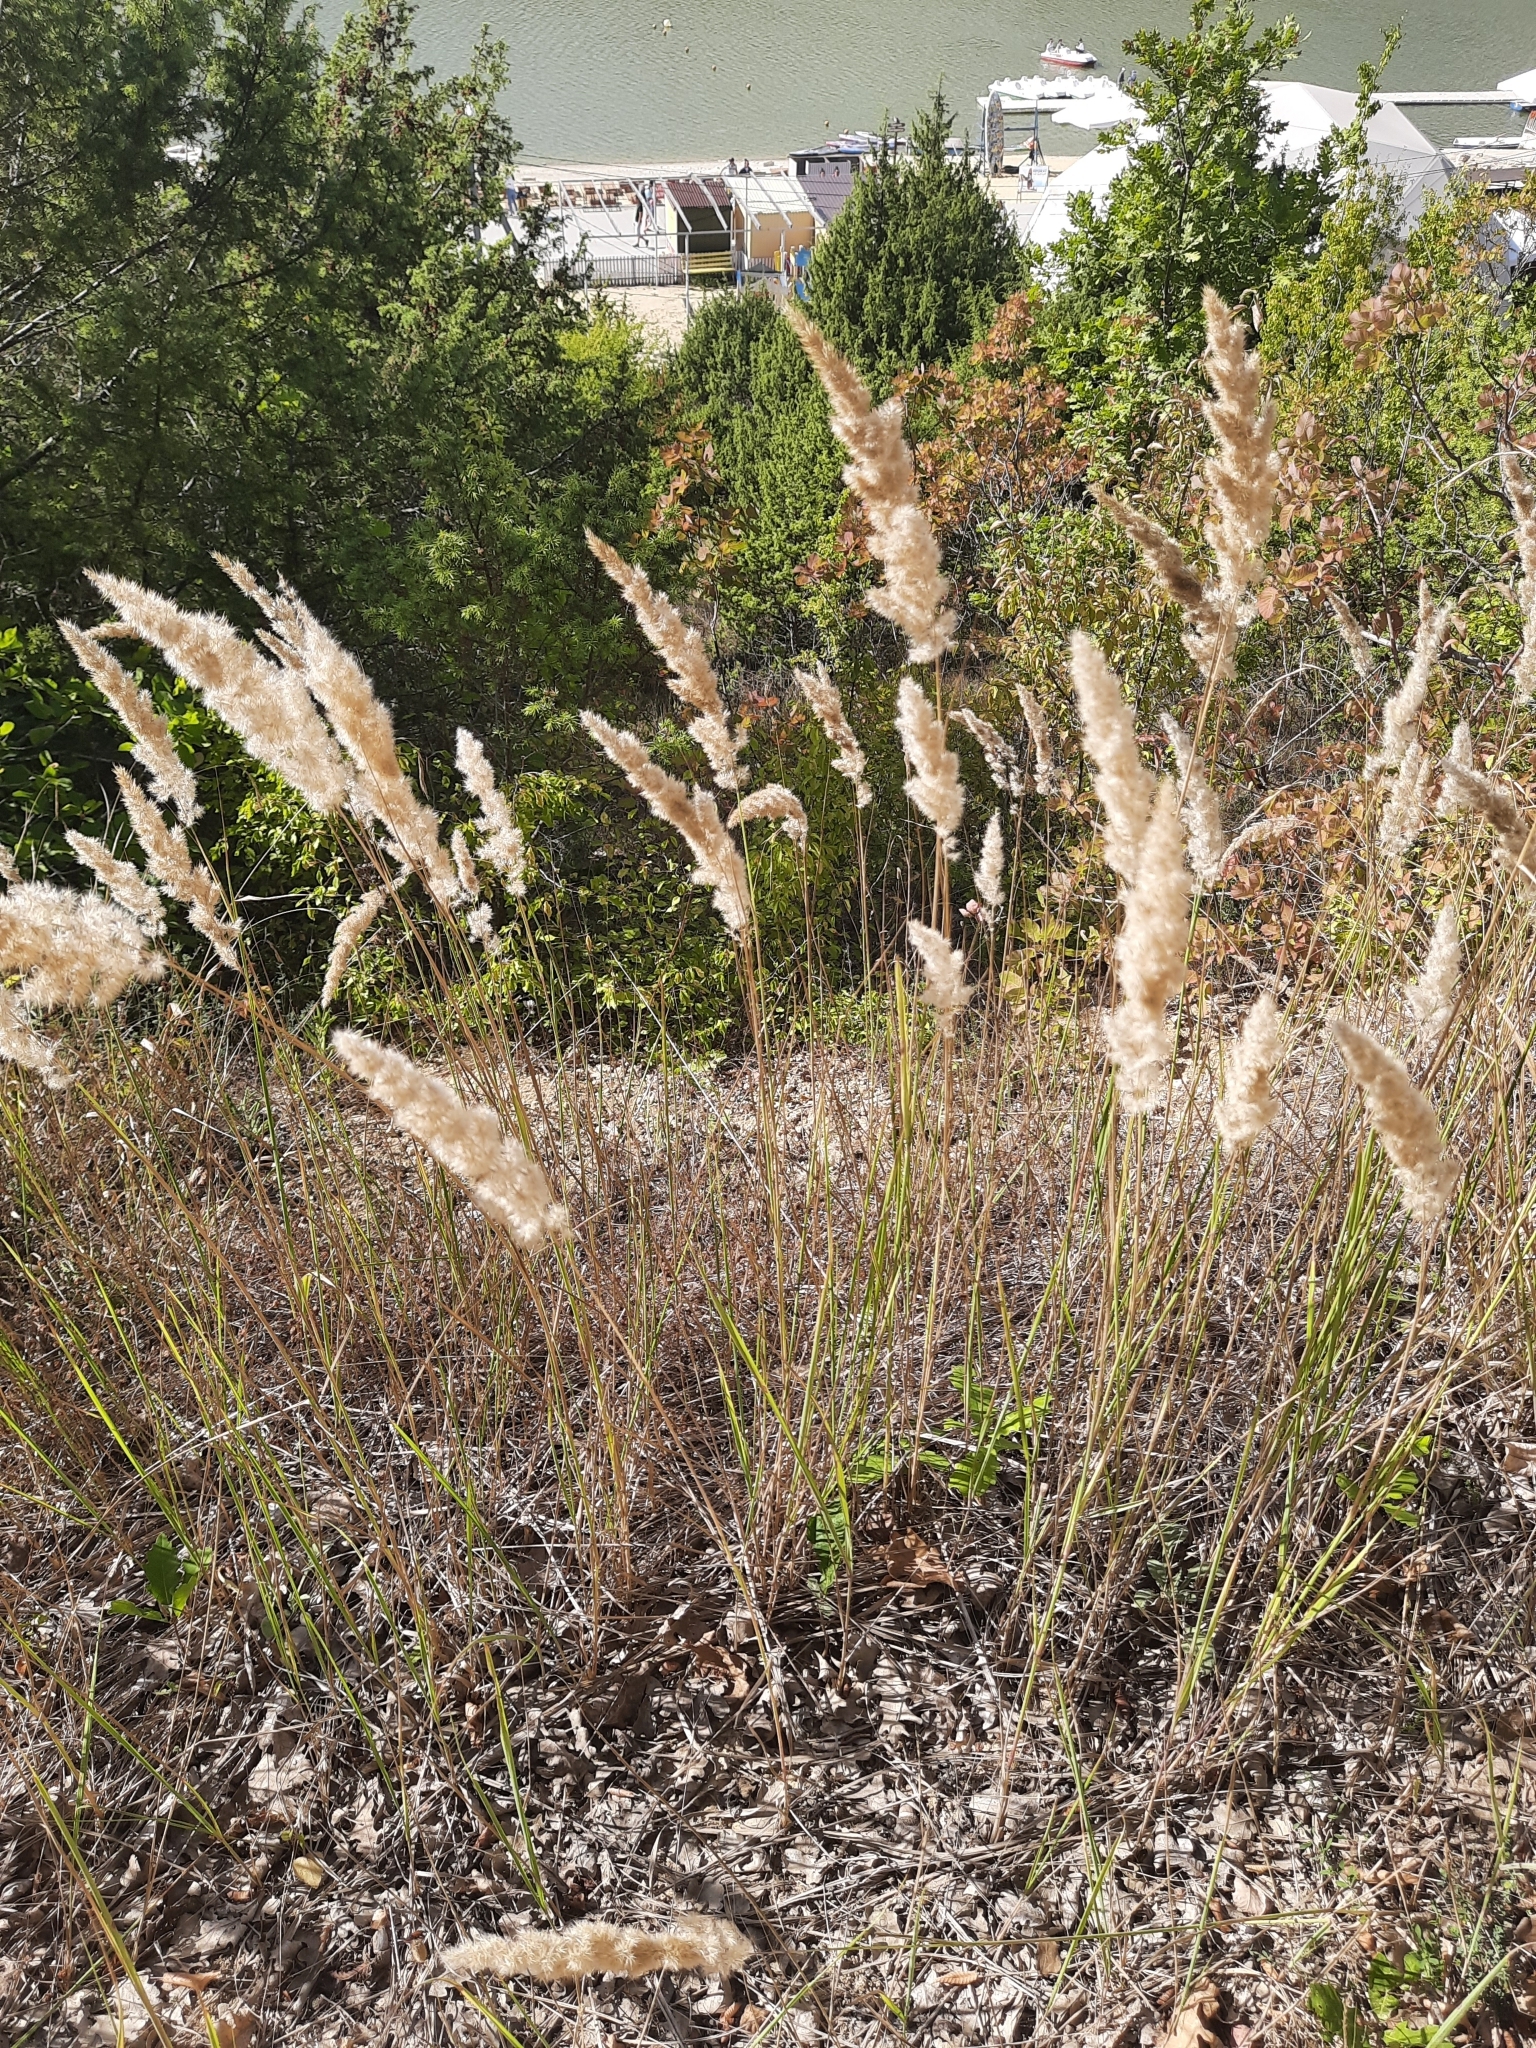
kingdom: Plantae
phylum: Tracheophyta
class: Liliopsida
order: Poales
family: Poaceae
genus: Calamagrostis
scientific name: Calamagrostis epigejos
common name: Wood small-reed
